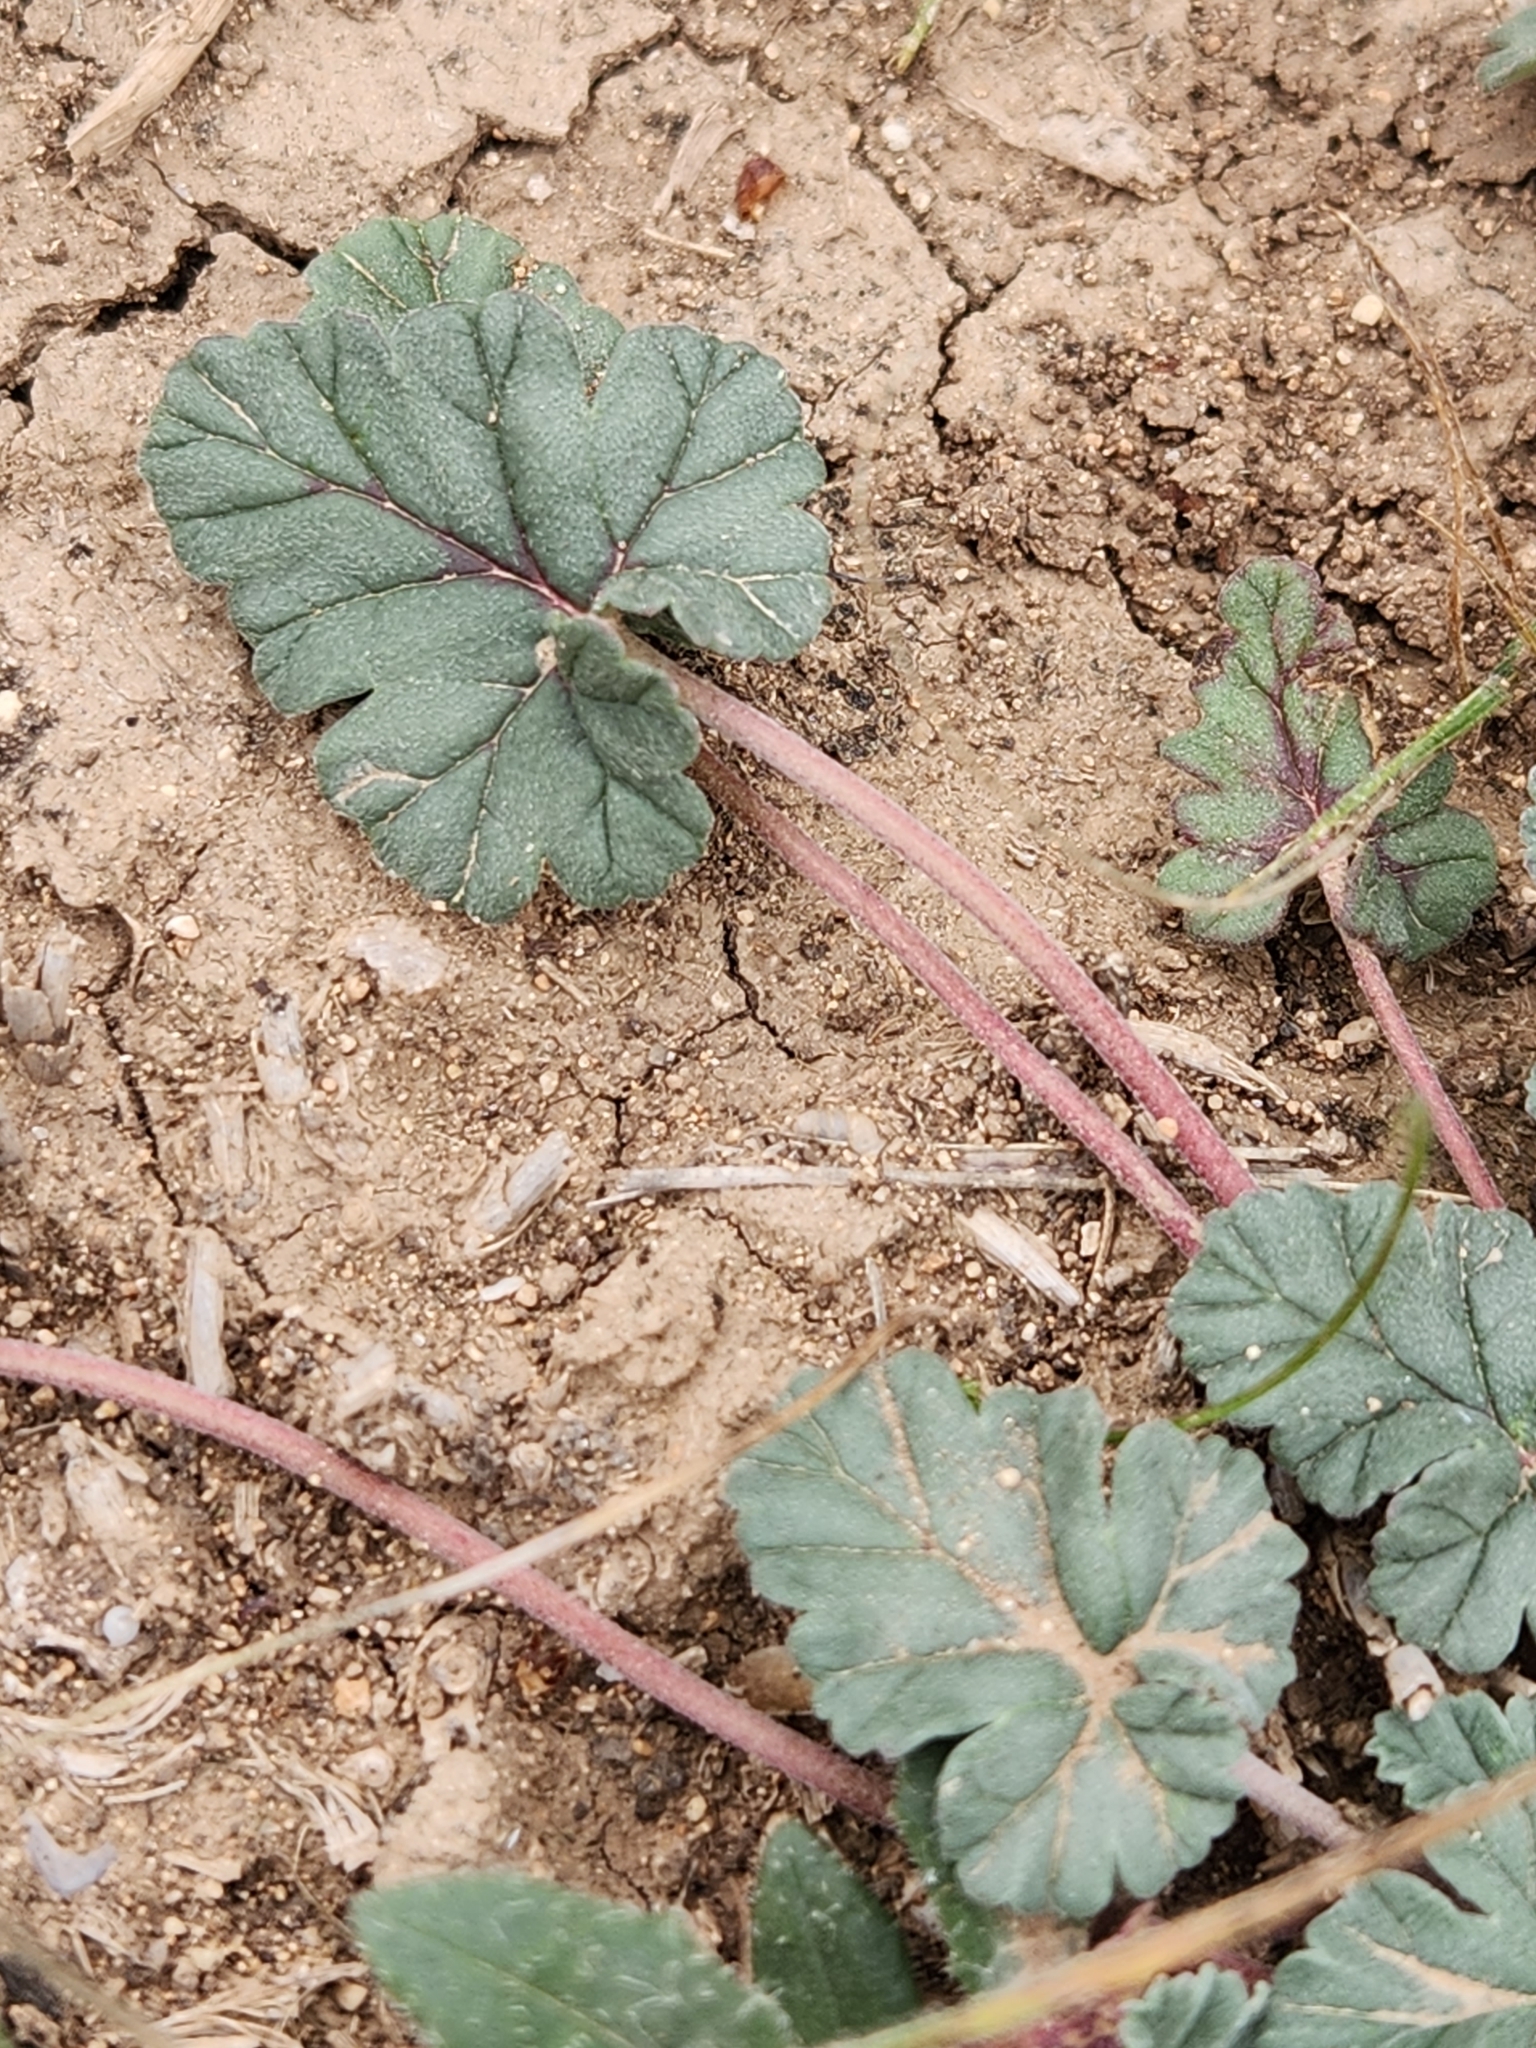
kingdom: Plantae
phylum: Tracheophyta
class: Magnoliopsida
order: Geraniales
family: Geraniaceae
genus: Erodium
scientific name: Erodium texanum
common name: Texas stork's-bill
